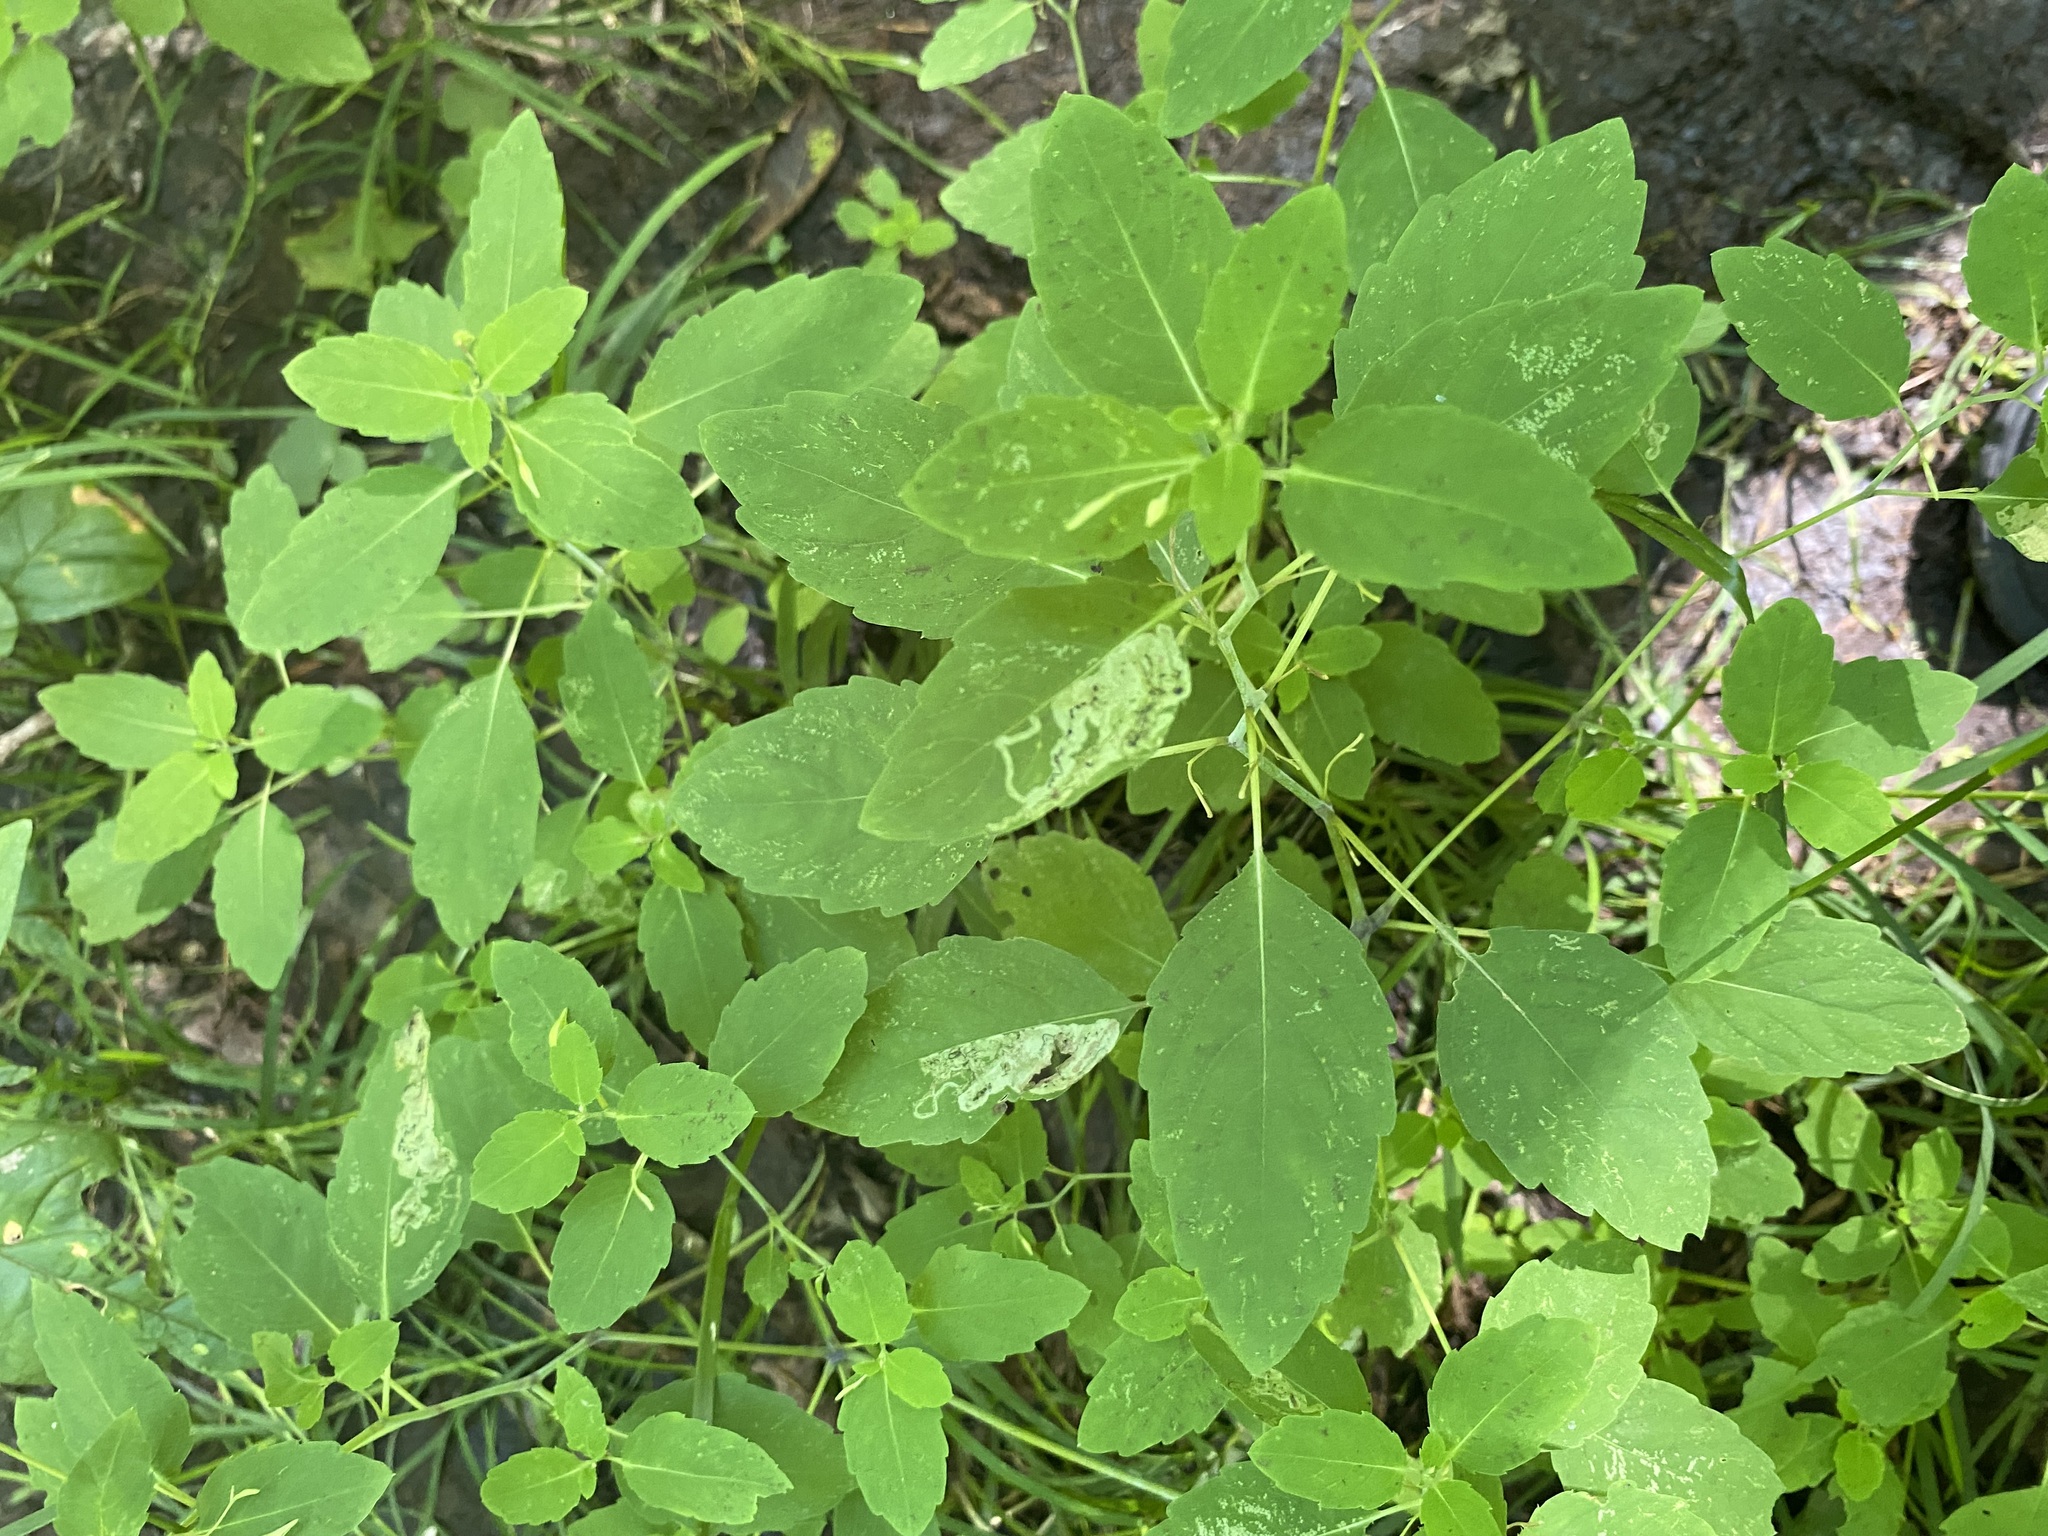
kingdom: Plantae
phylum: Tracheophyta
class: Magnoliopsida
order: Ericales
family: Balsaminaceae
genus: Impatiens
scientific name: Impatiens capensis
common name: Orange balsam
